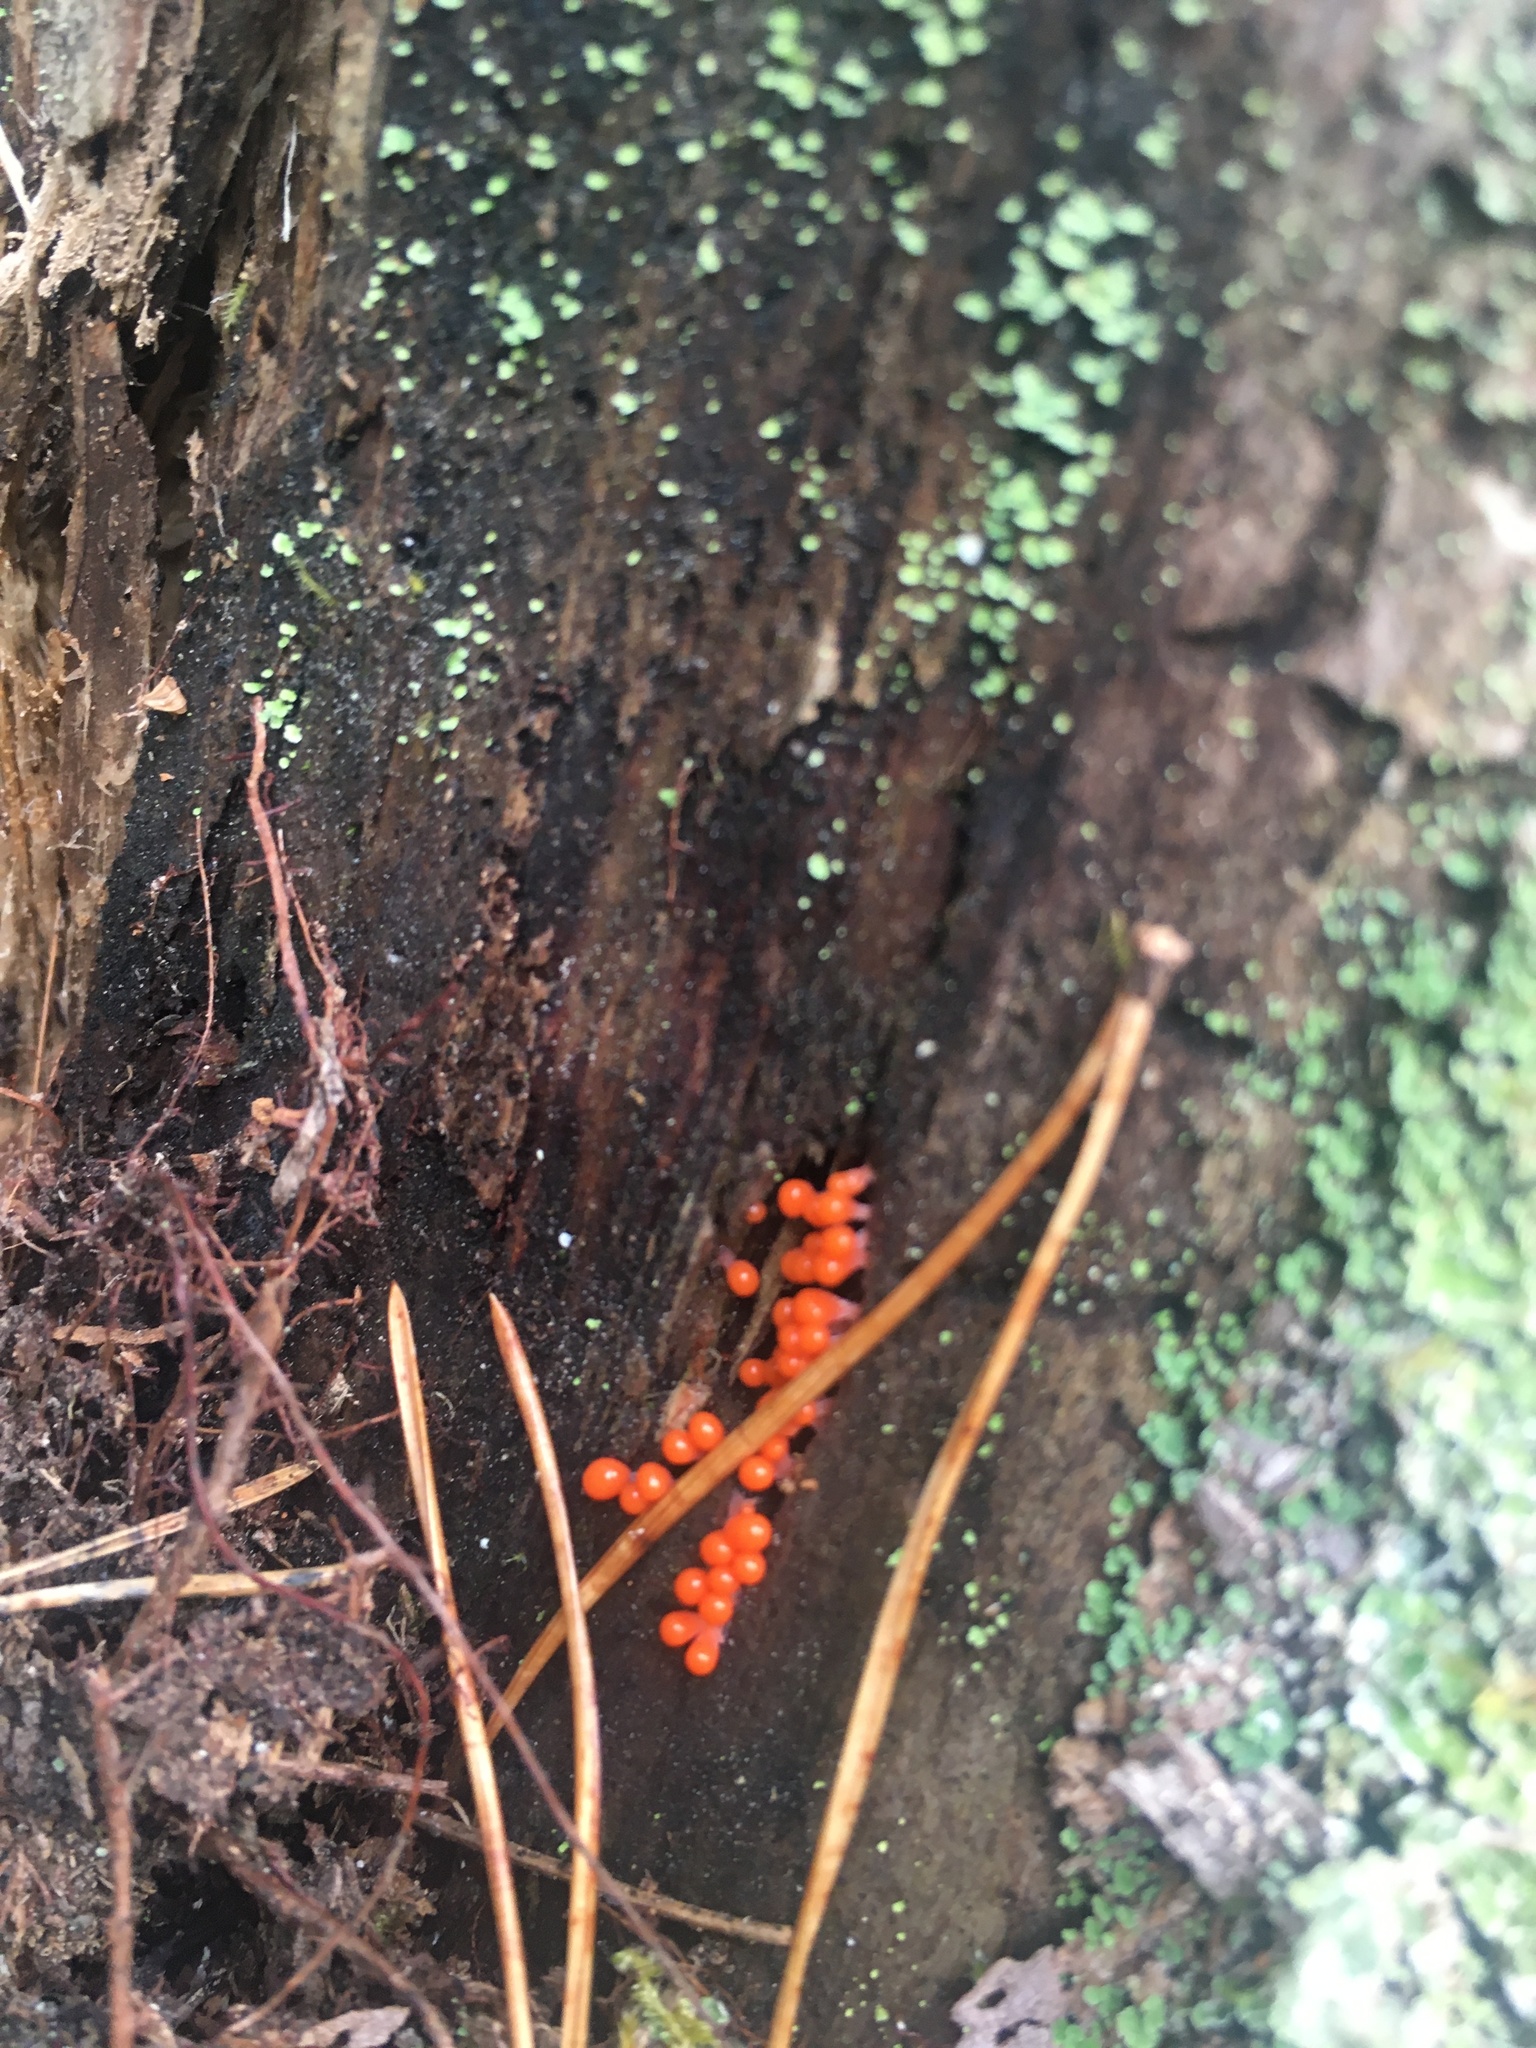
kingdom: Protozoa
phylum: Mycetozoa
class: Myxomycetes
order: Trichiales
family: Arcyriaceae
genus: Hemitrichia
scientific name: Hemitrichia decipiens
